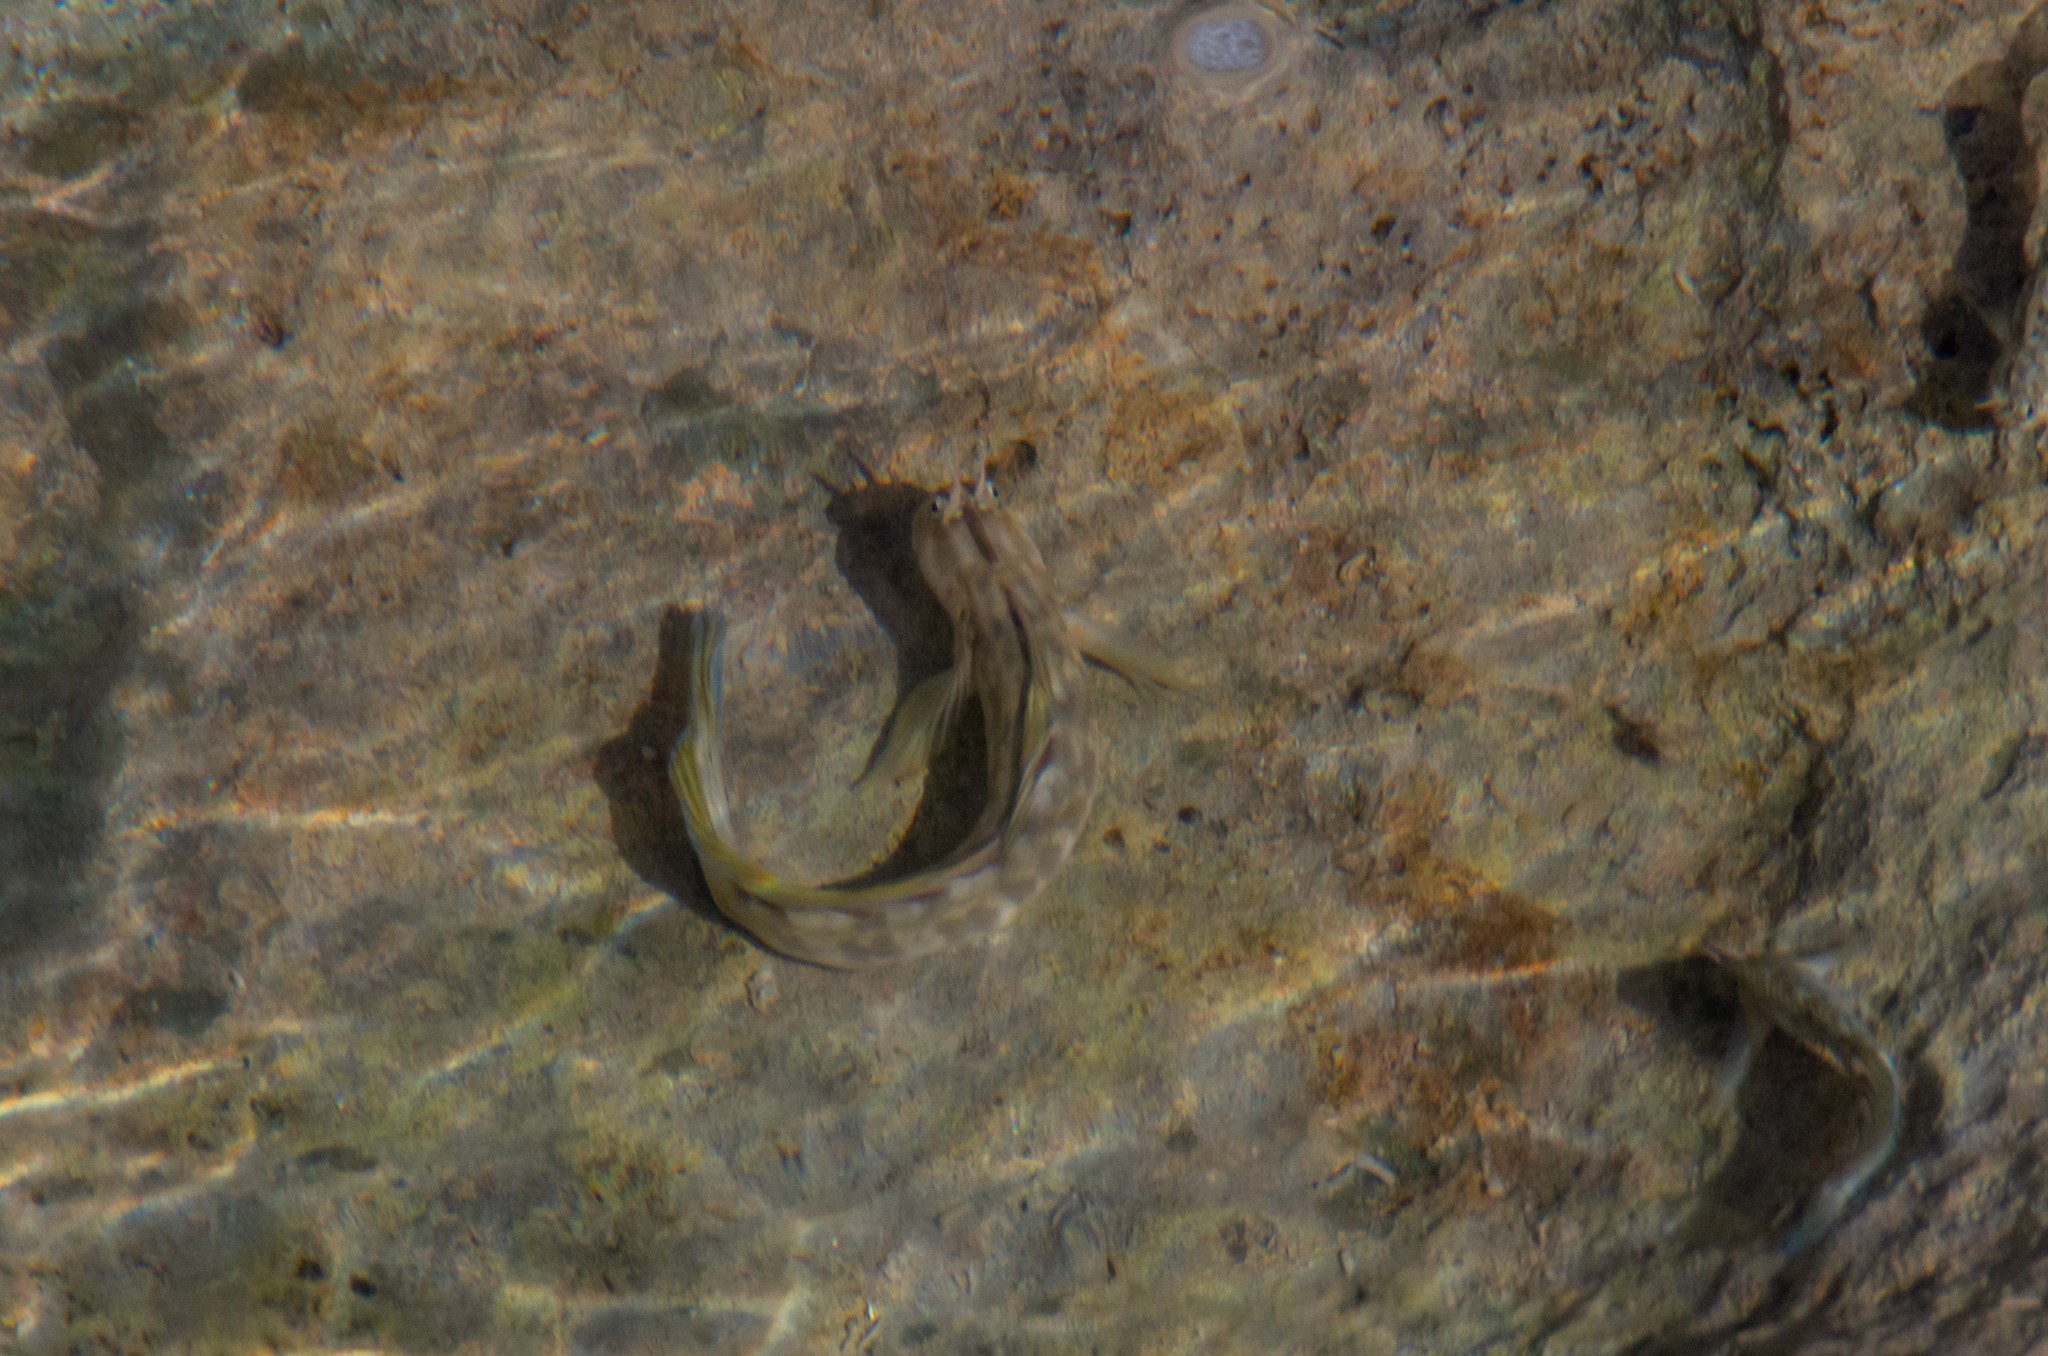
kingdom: Animalia
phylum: Chordata
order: Perciformes
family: Blenniidae
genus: Istiblennius
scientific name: Istiblennius zebra
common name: Zebra blenny
